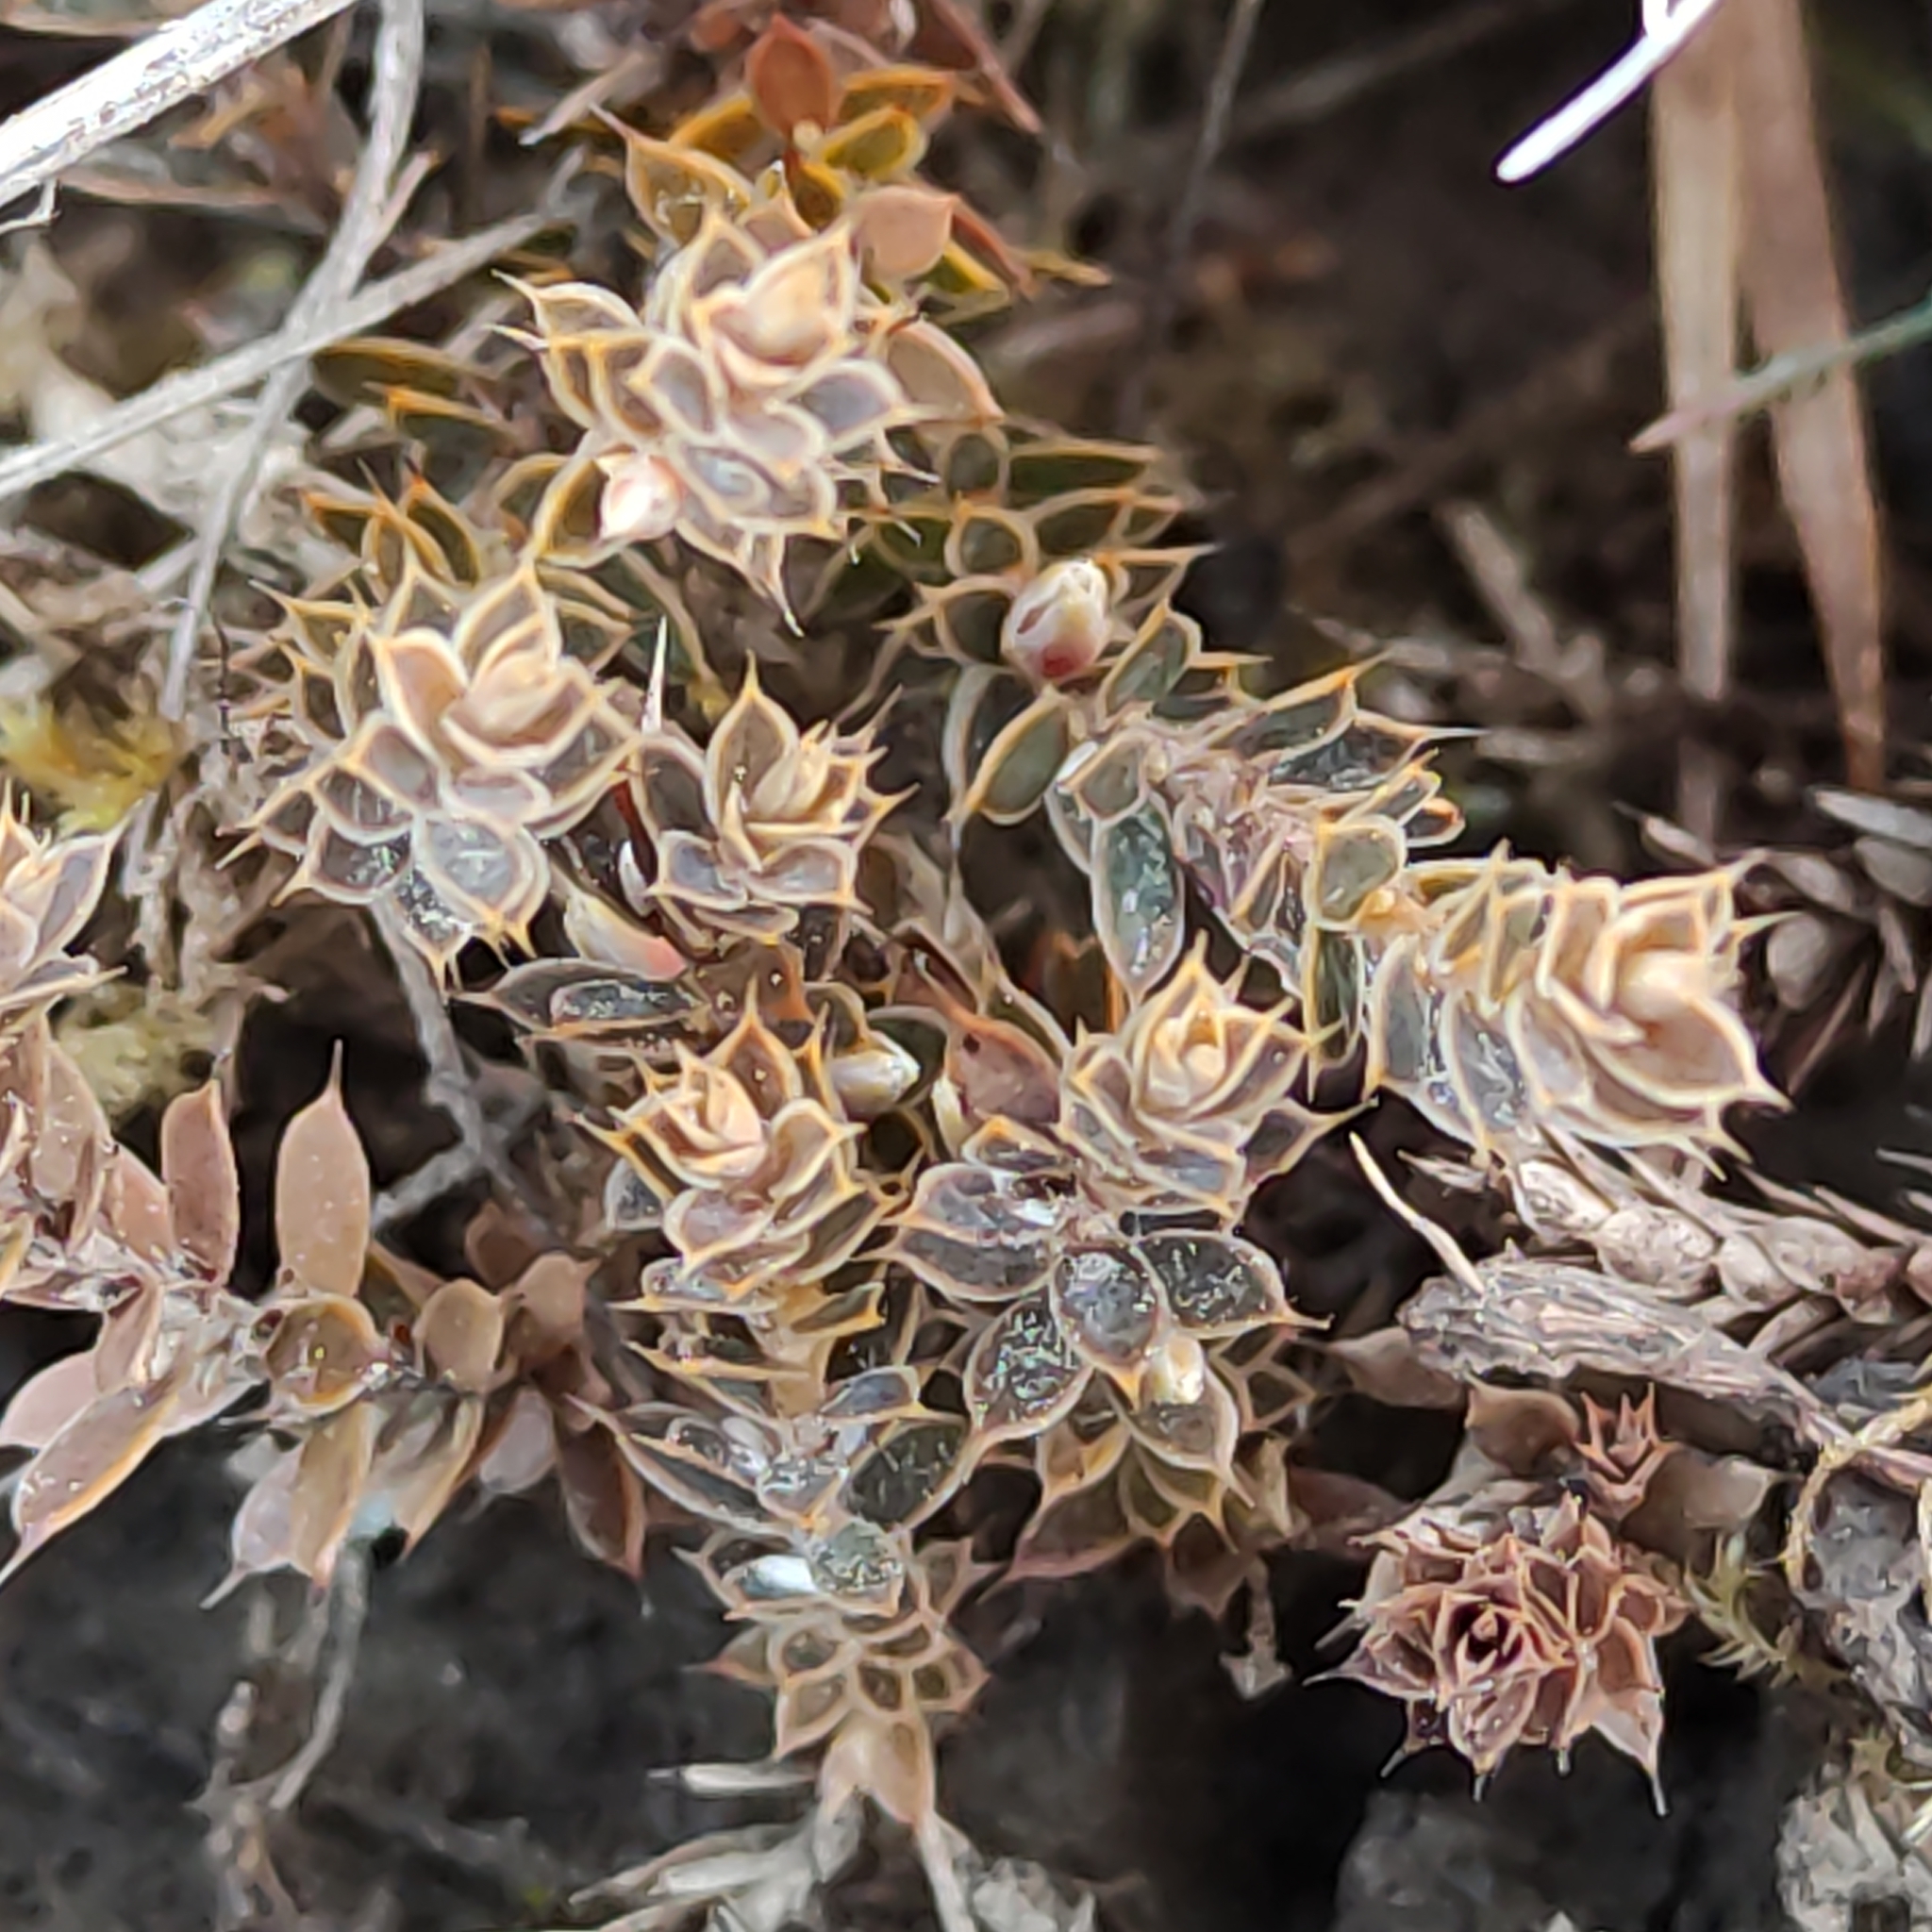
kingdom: Plantae
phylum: Tracheophyta
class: Magnoliopsida
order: Ericales
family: Ericaceae
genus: Styphelia
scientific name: Styphelia nesophila
